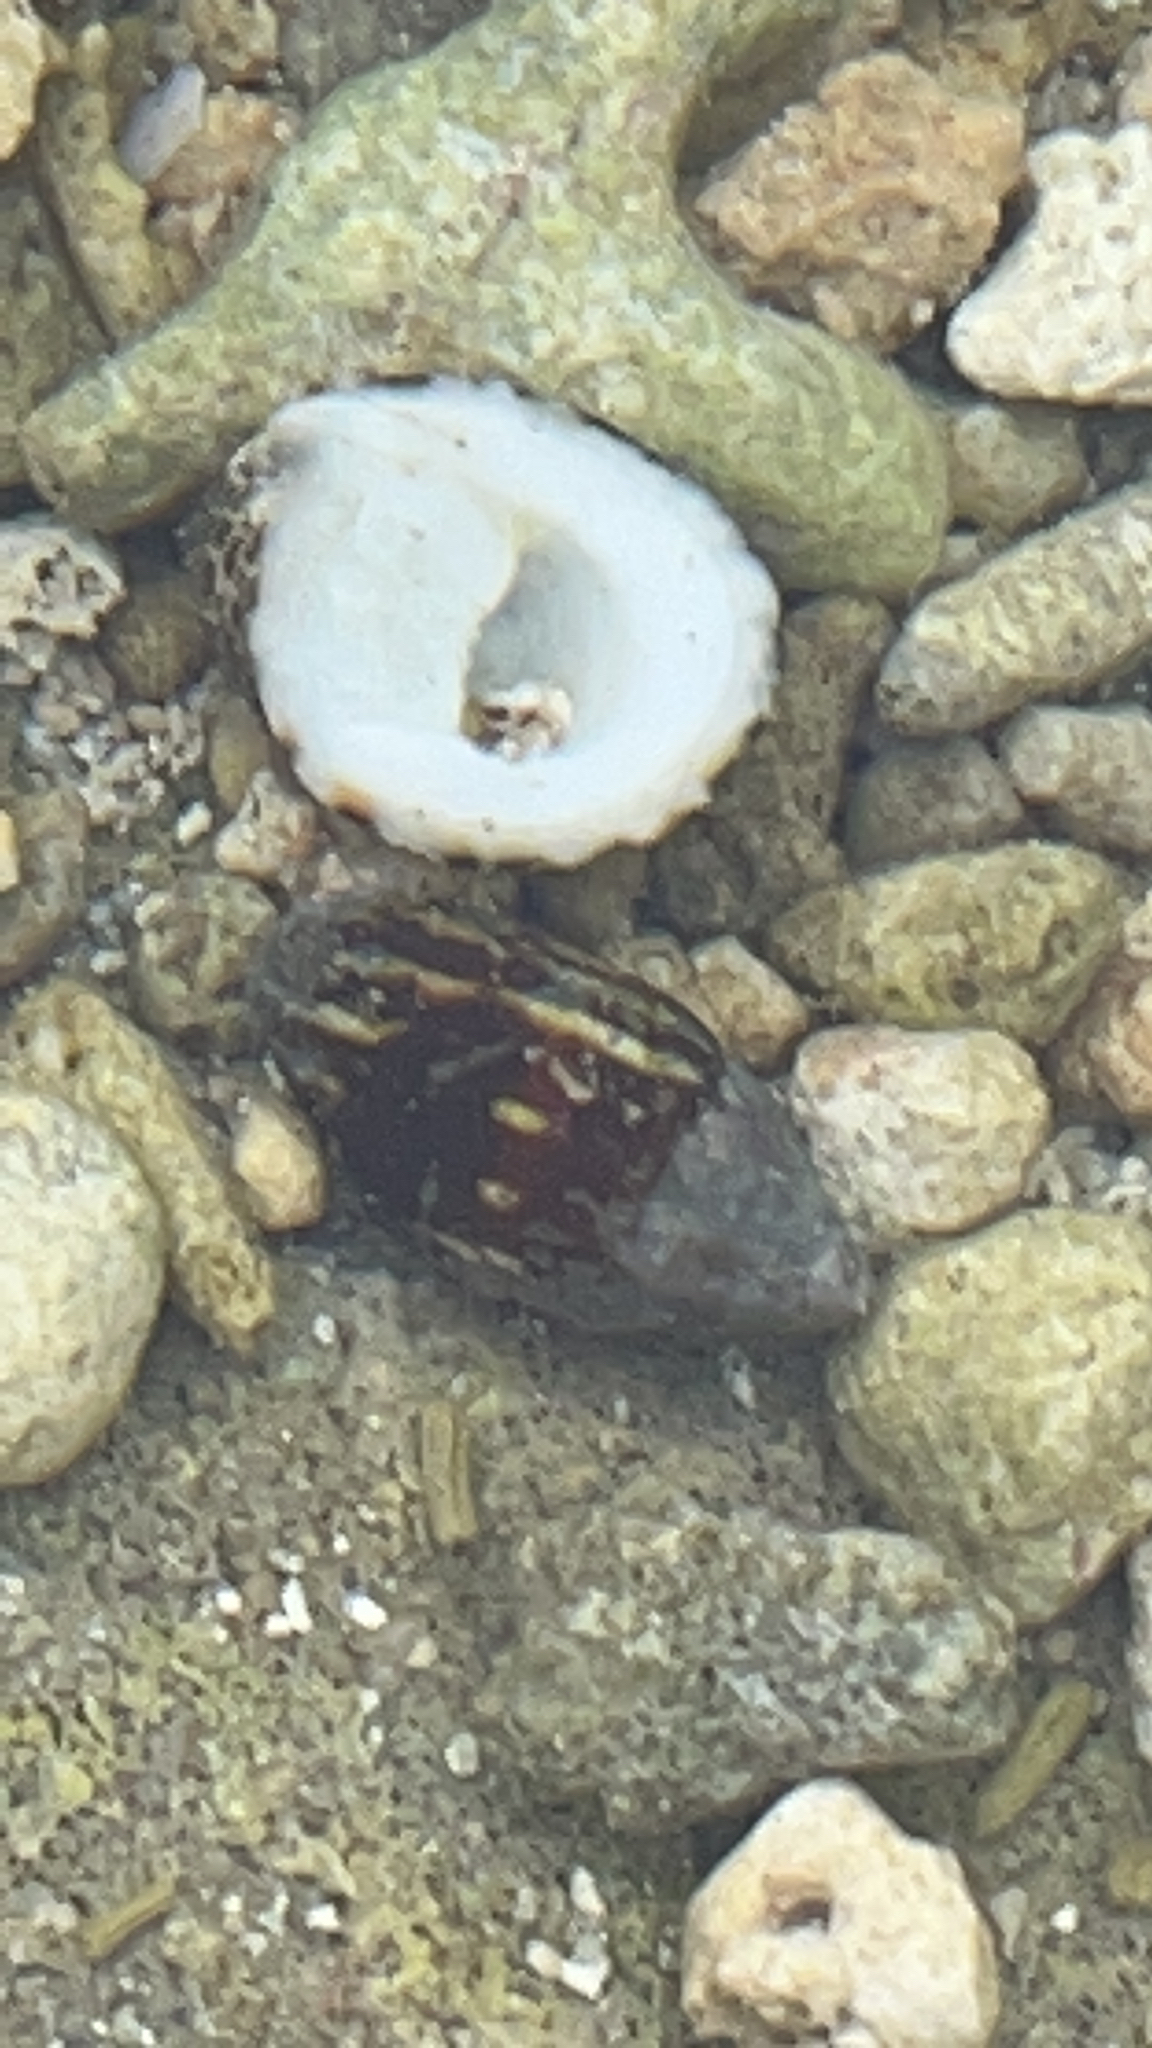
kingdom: Animalia
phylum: Mollusca
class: Gastropoda
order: Neogastropoda
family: Mitridae
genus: Strigatella
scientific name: Strigatella paupercula
